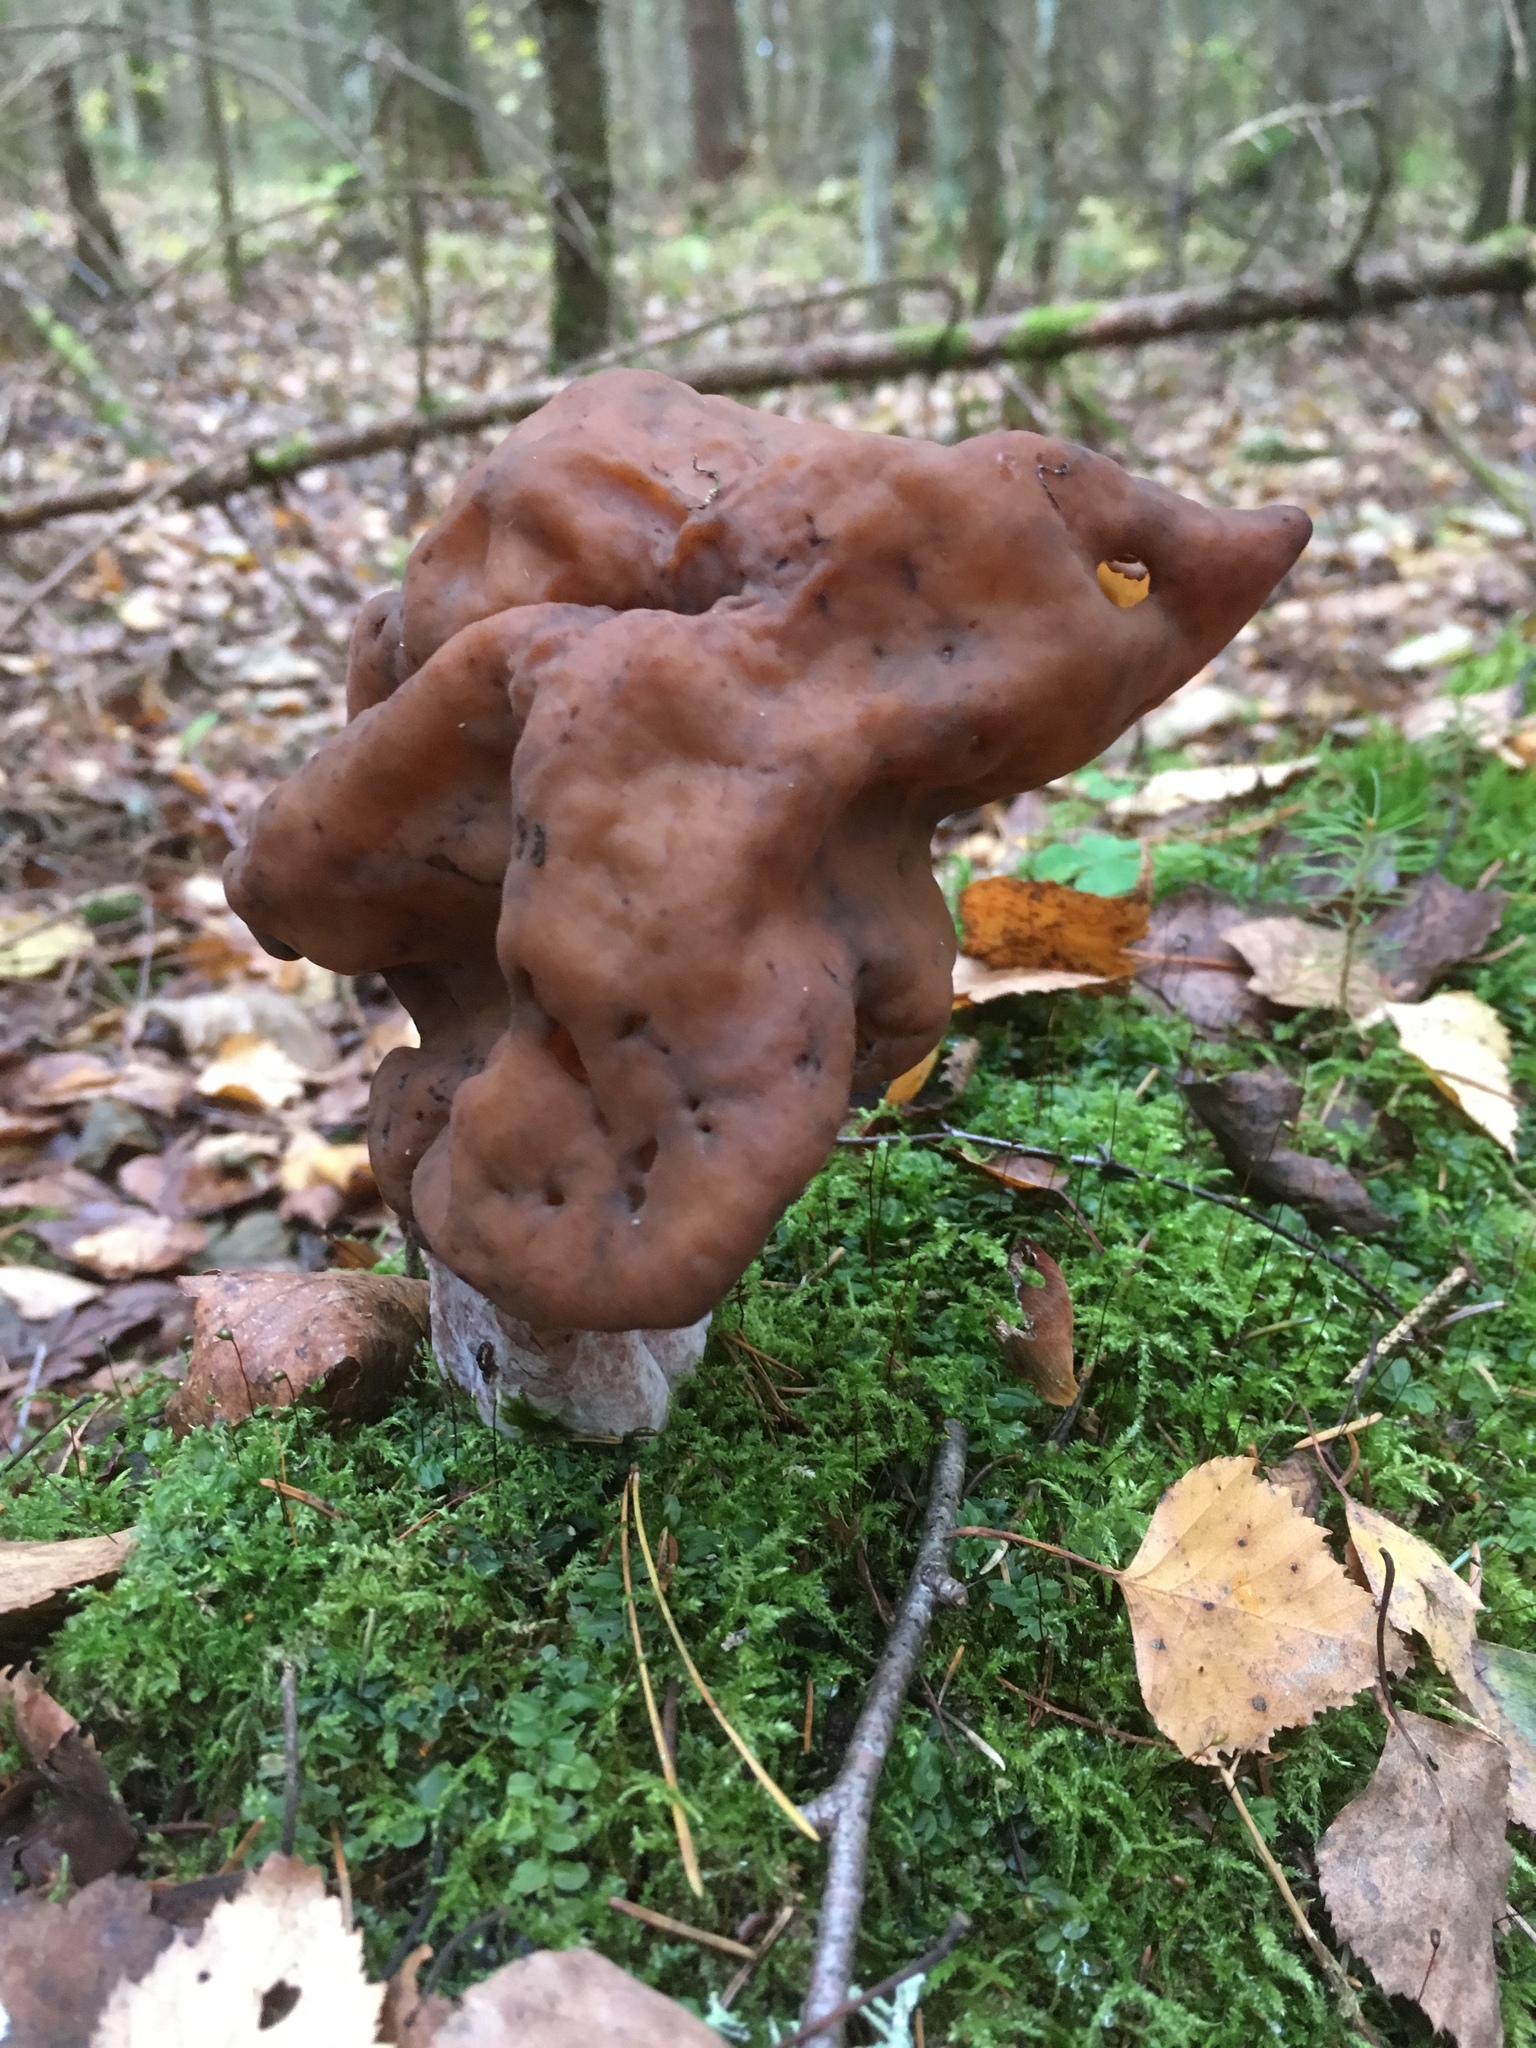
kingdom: Fungi
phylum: Ascomycota
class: Pezizomycetes
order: Pezizales
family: Discinaceae
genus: Gyromitra
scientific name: Gyromitra infula
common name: Pouched false morel
